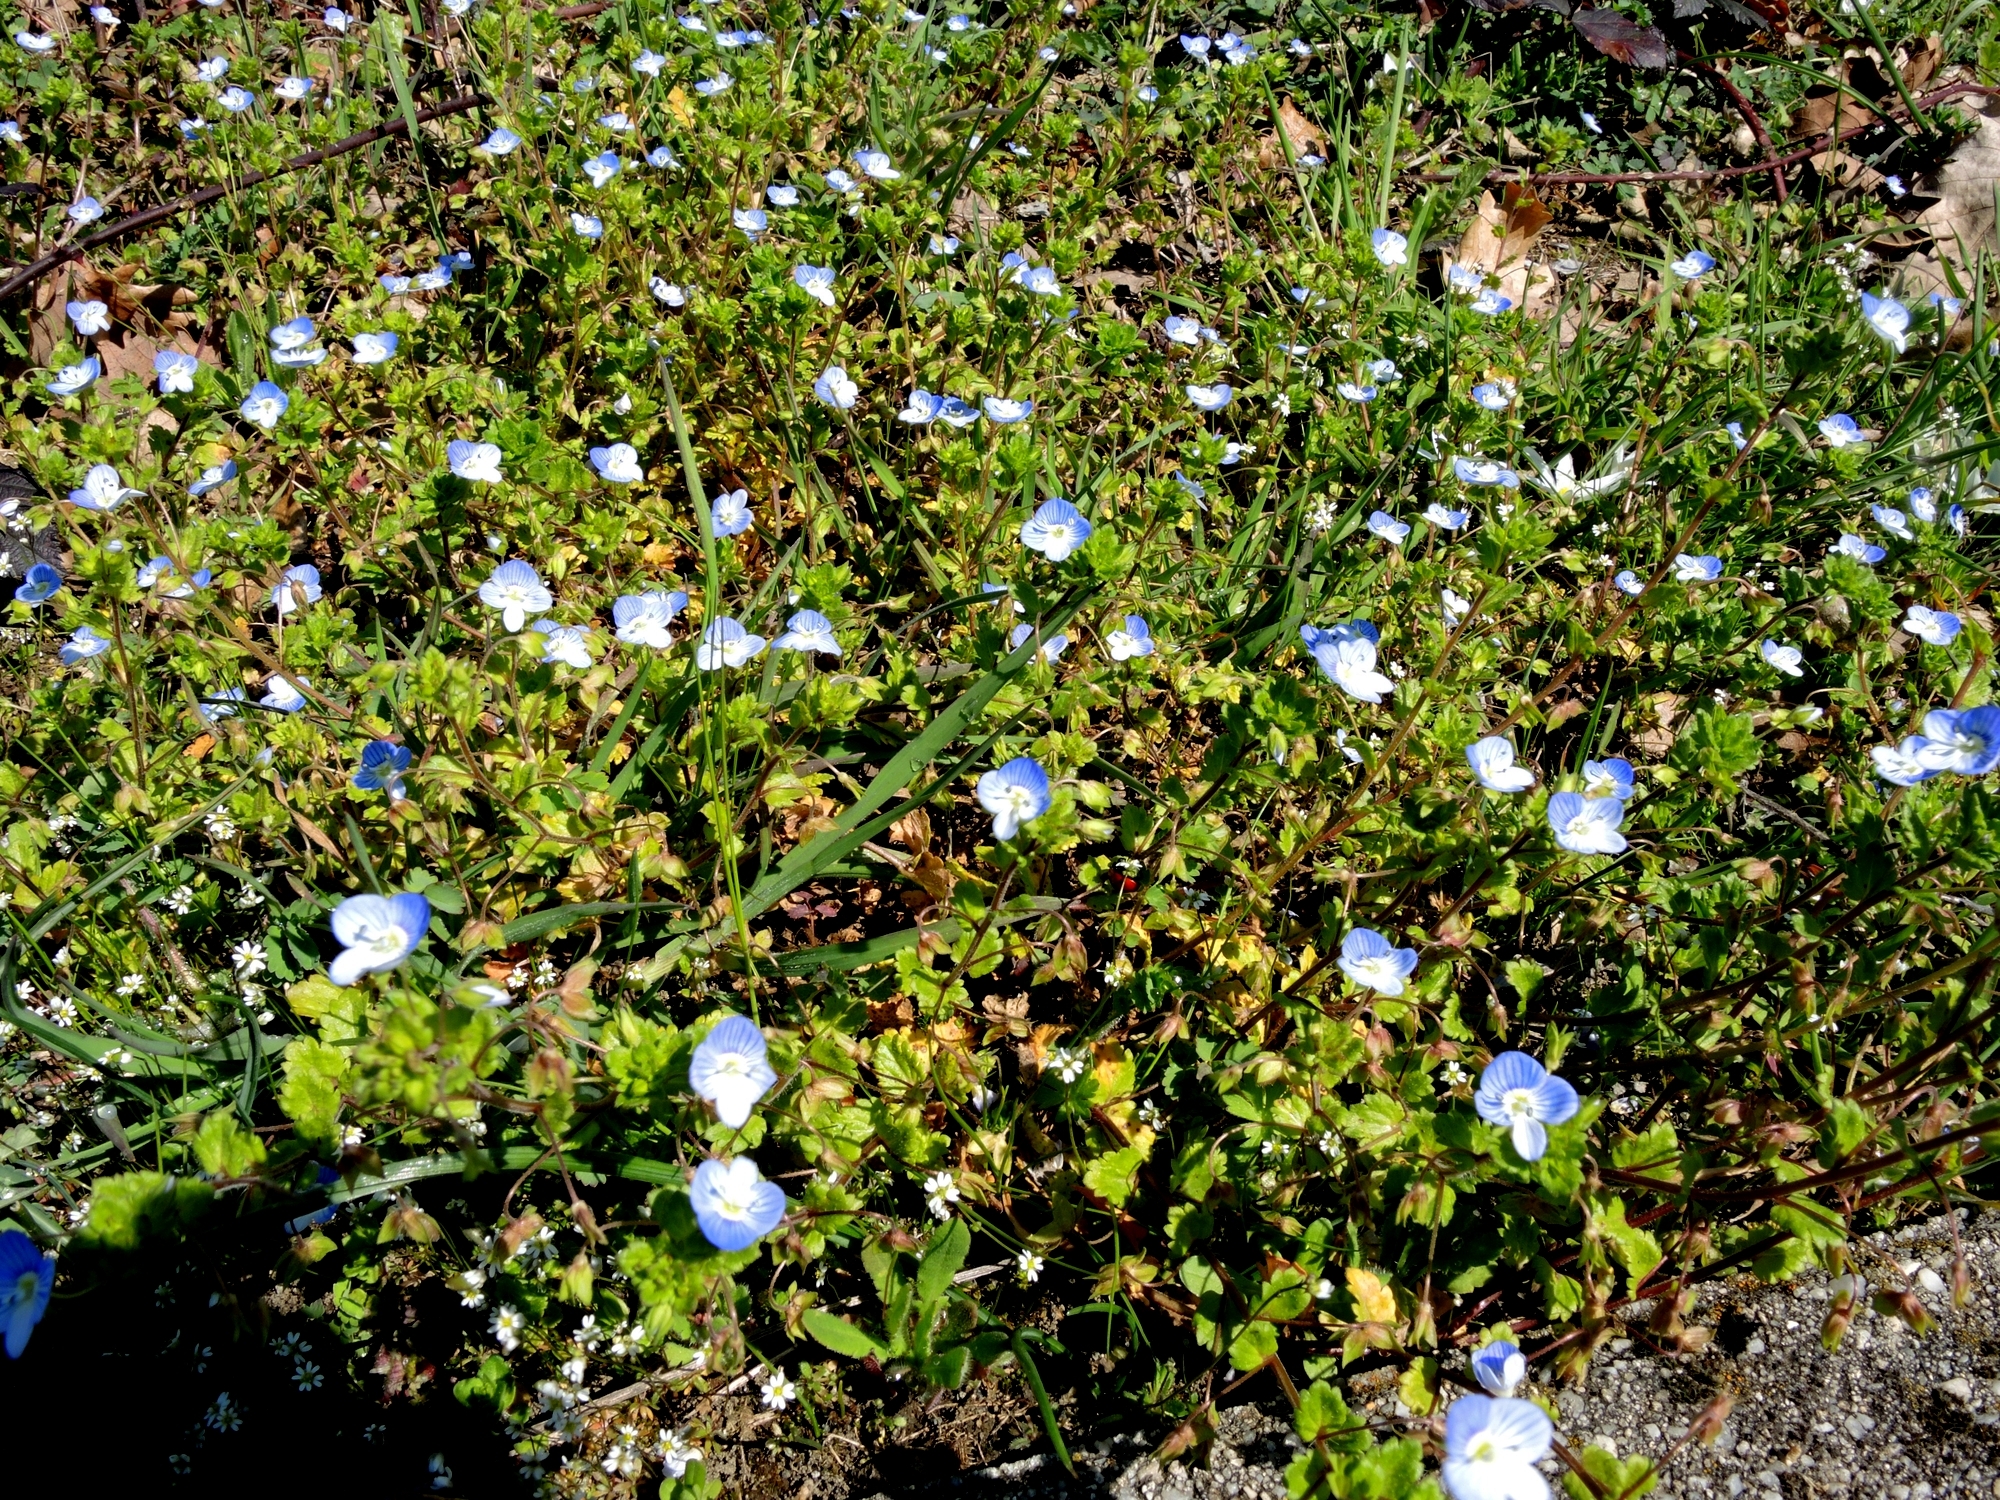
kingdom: Plantae
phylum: Tracheophyta
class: Magnoliopsida
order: Lamiales
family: Plantaginaceae
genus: Veronica
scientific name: Veronica persica
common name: Common field-speedwell
